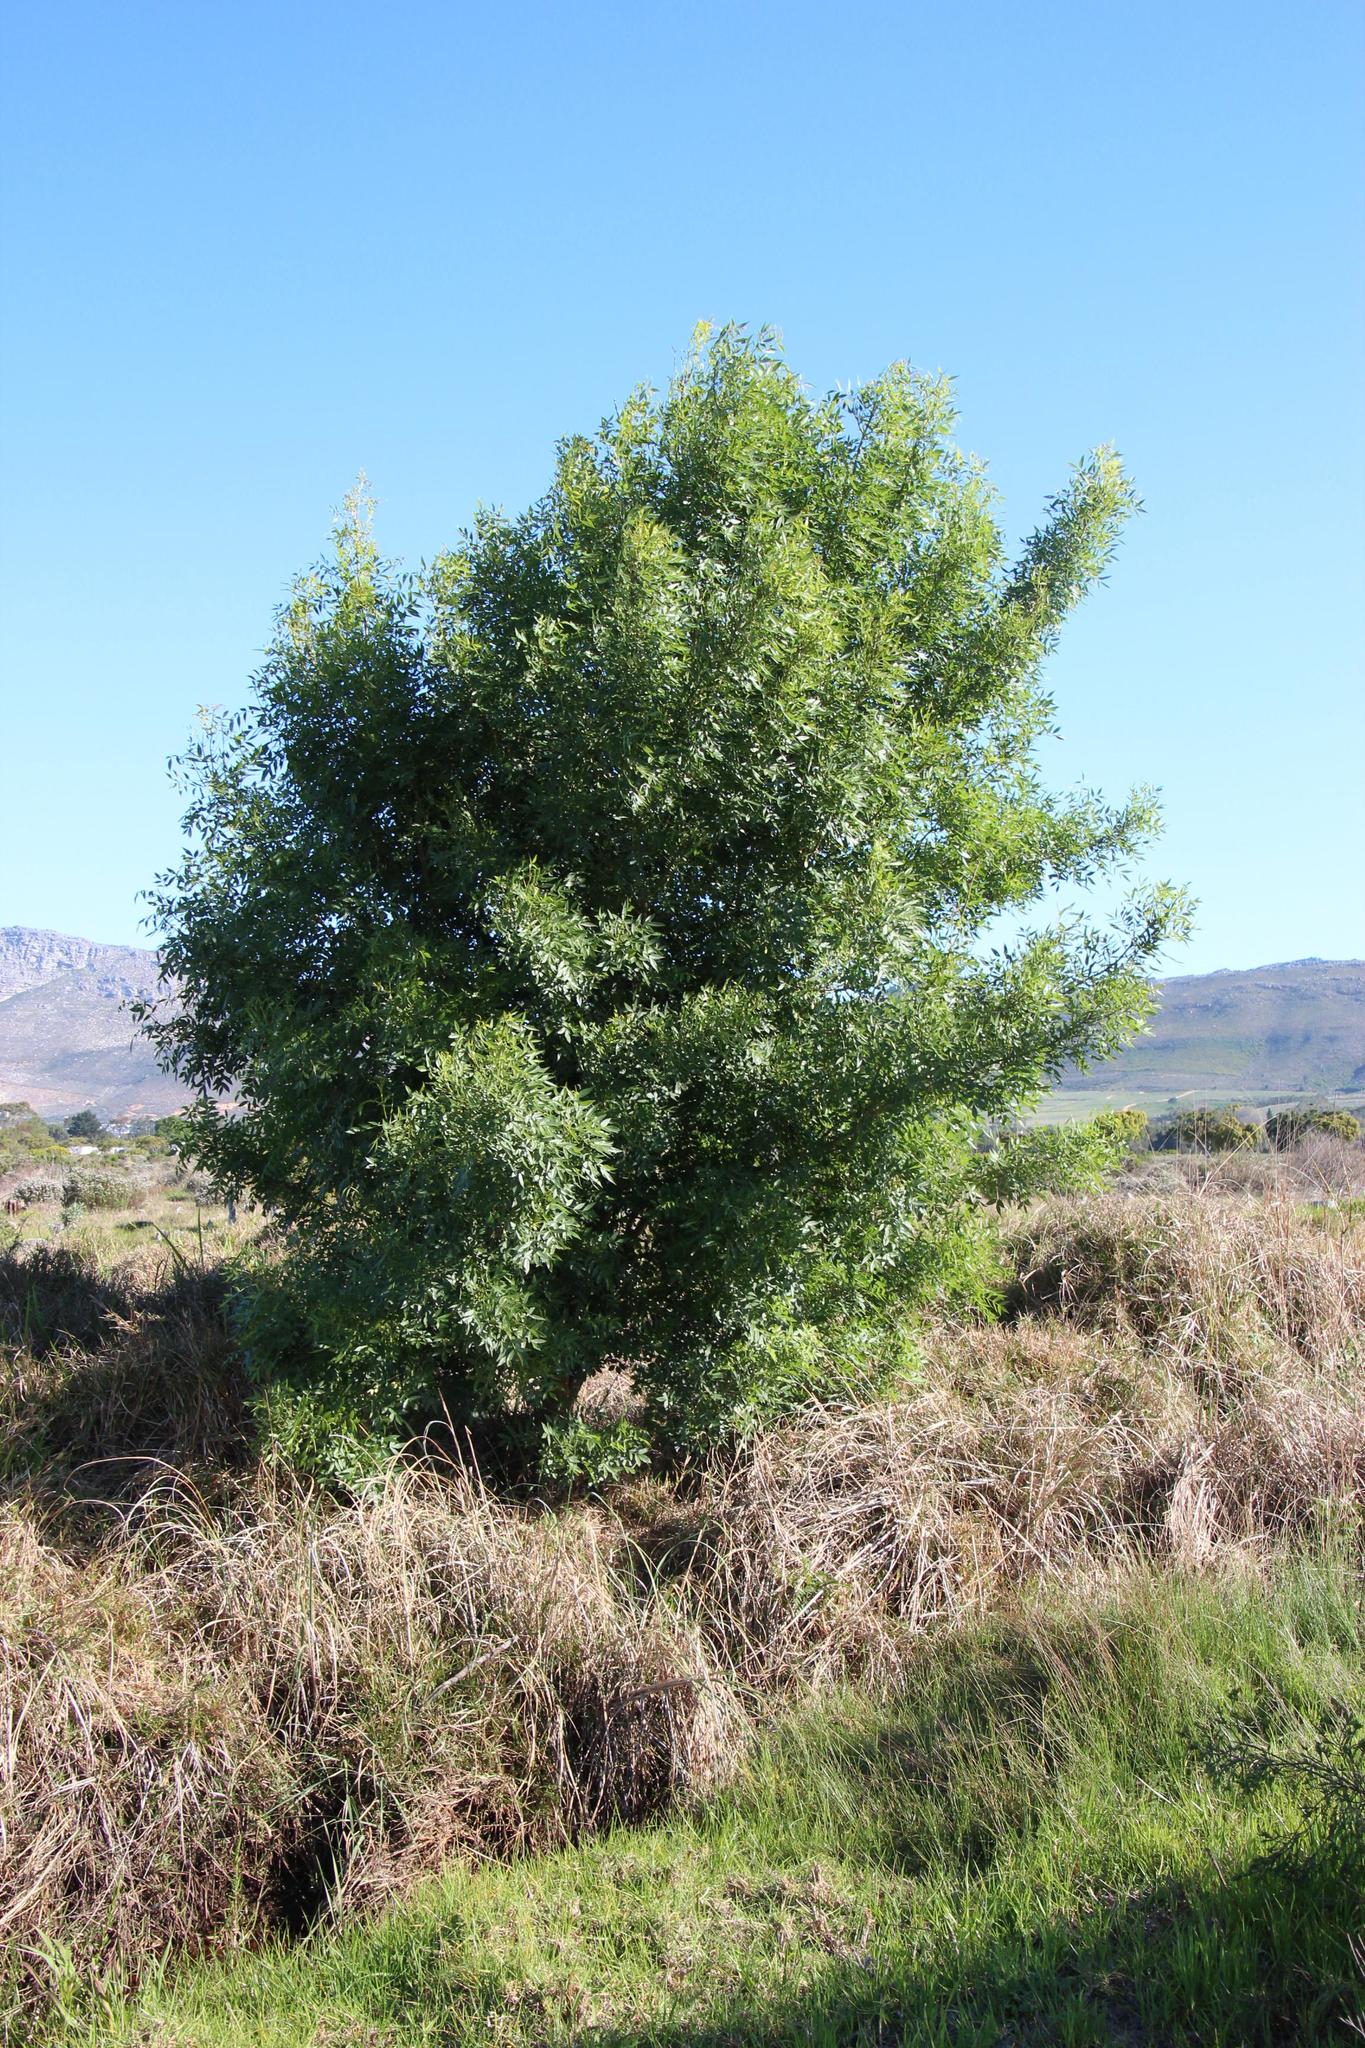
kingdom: Plantae
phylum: Tracheophyta
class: Magnoliopsida
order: Lamiales
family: Oleaceae
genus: Fraxinus
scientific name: Fraxinus pennsylvanica
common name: Green ash
